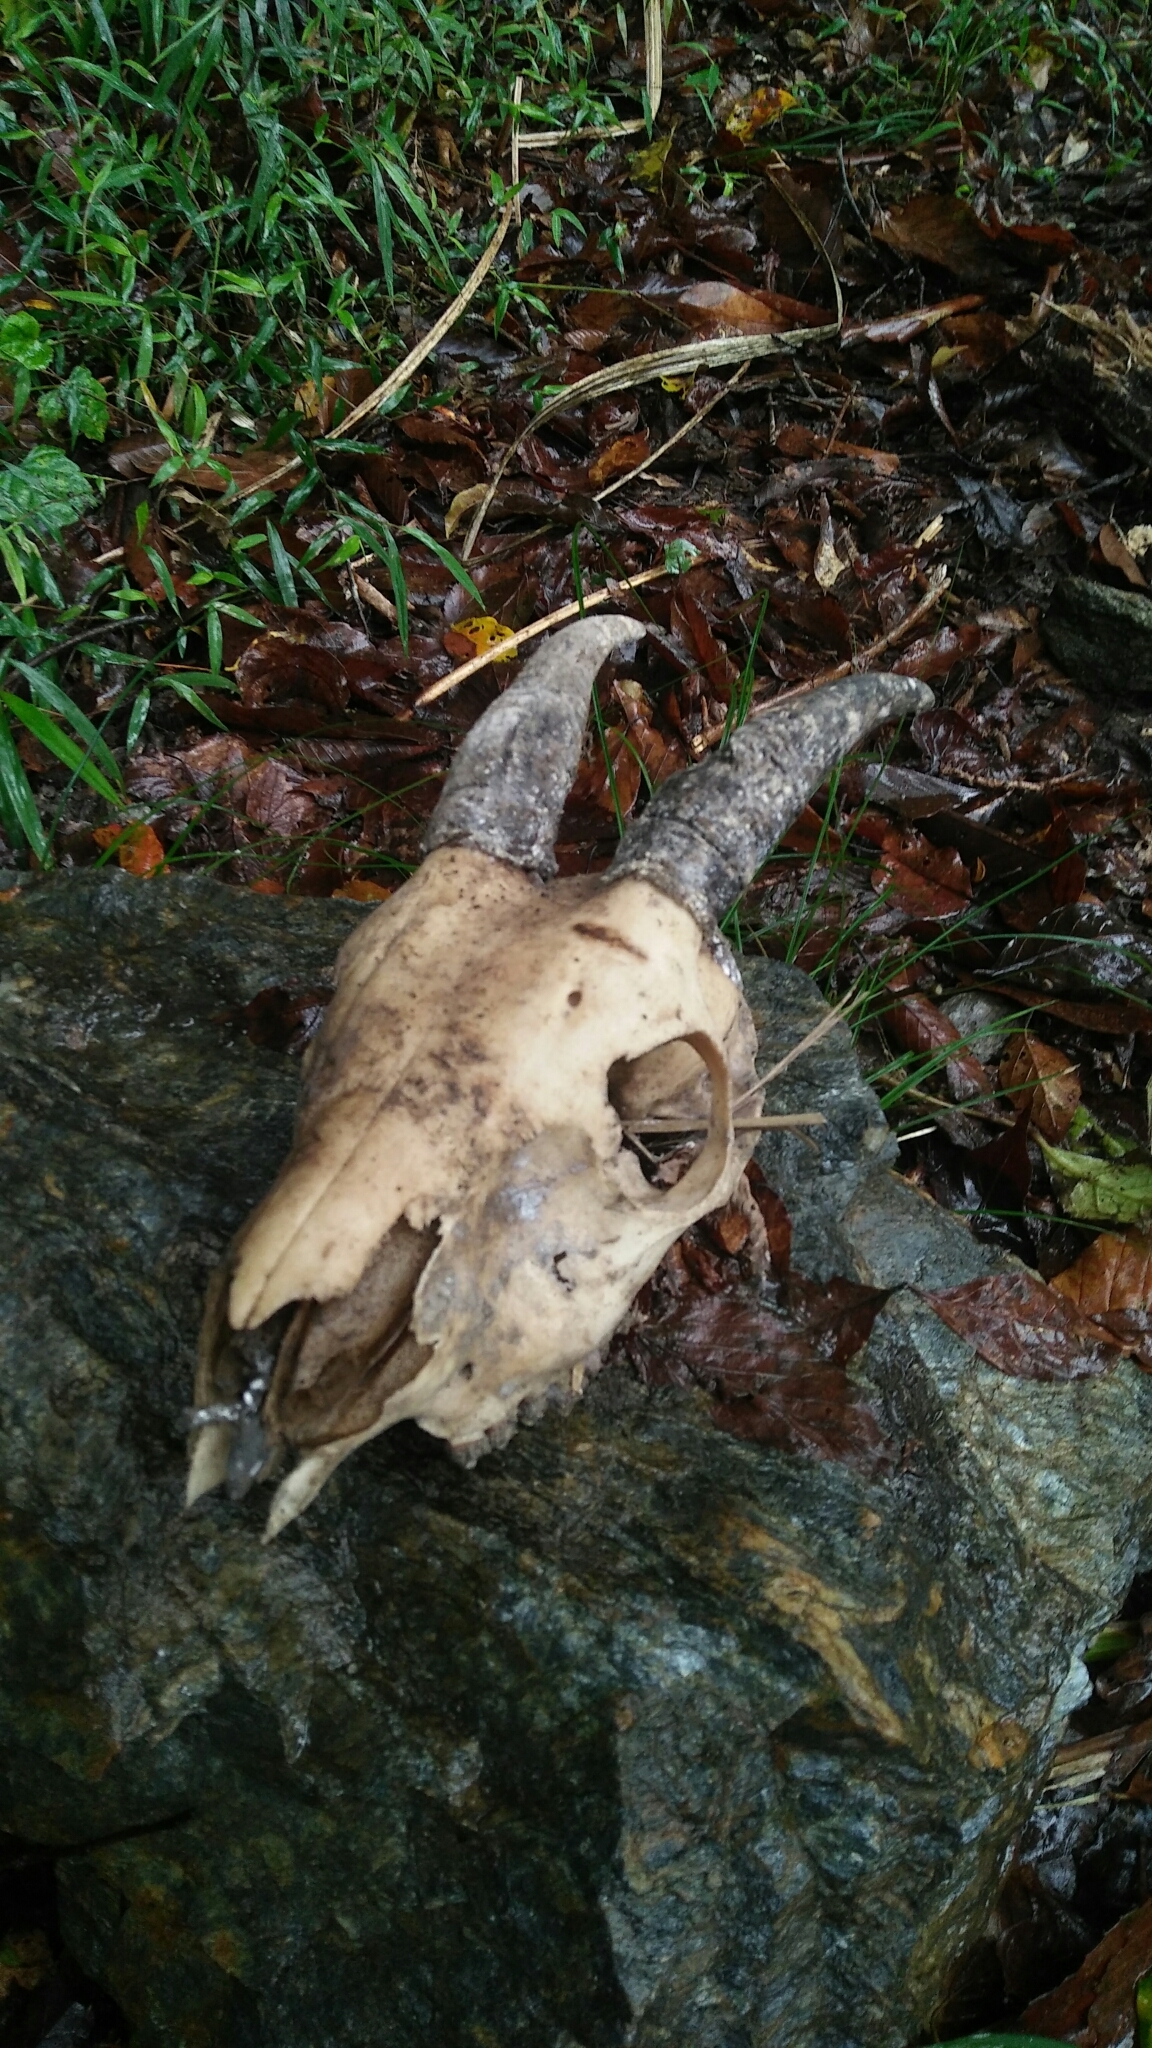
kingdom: Animalia
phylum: Chordata
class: Mammalia
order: Artiodactyla
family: Bovidae
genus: Capricornis
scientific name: Capricornis swinhoei
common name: Formosan serow
